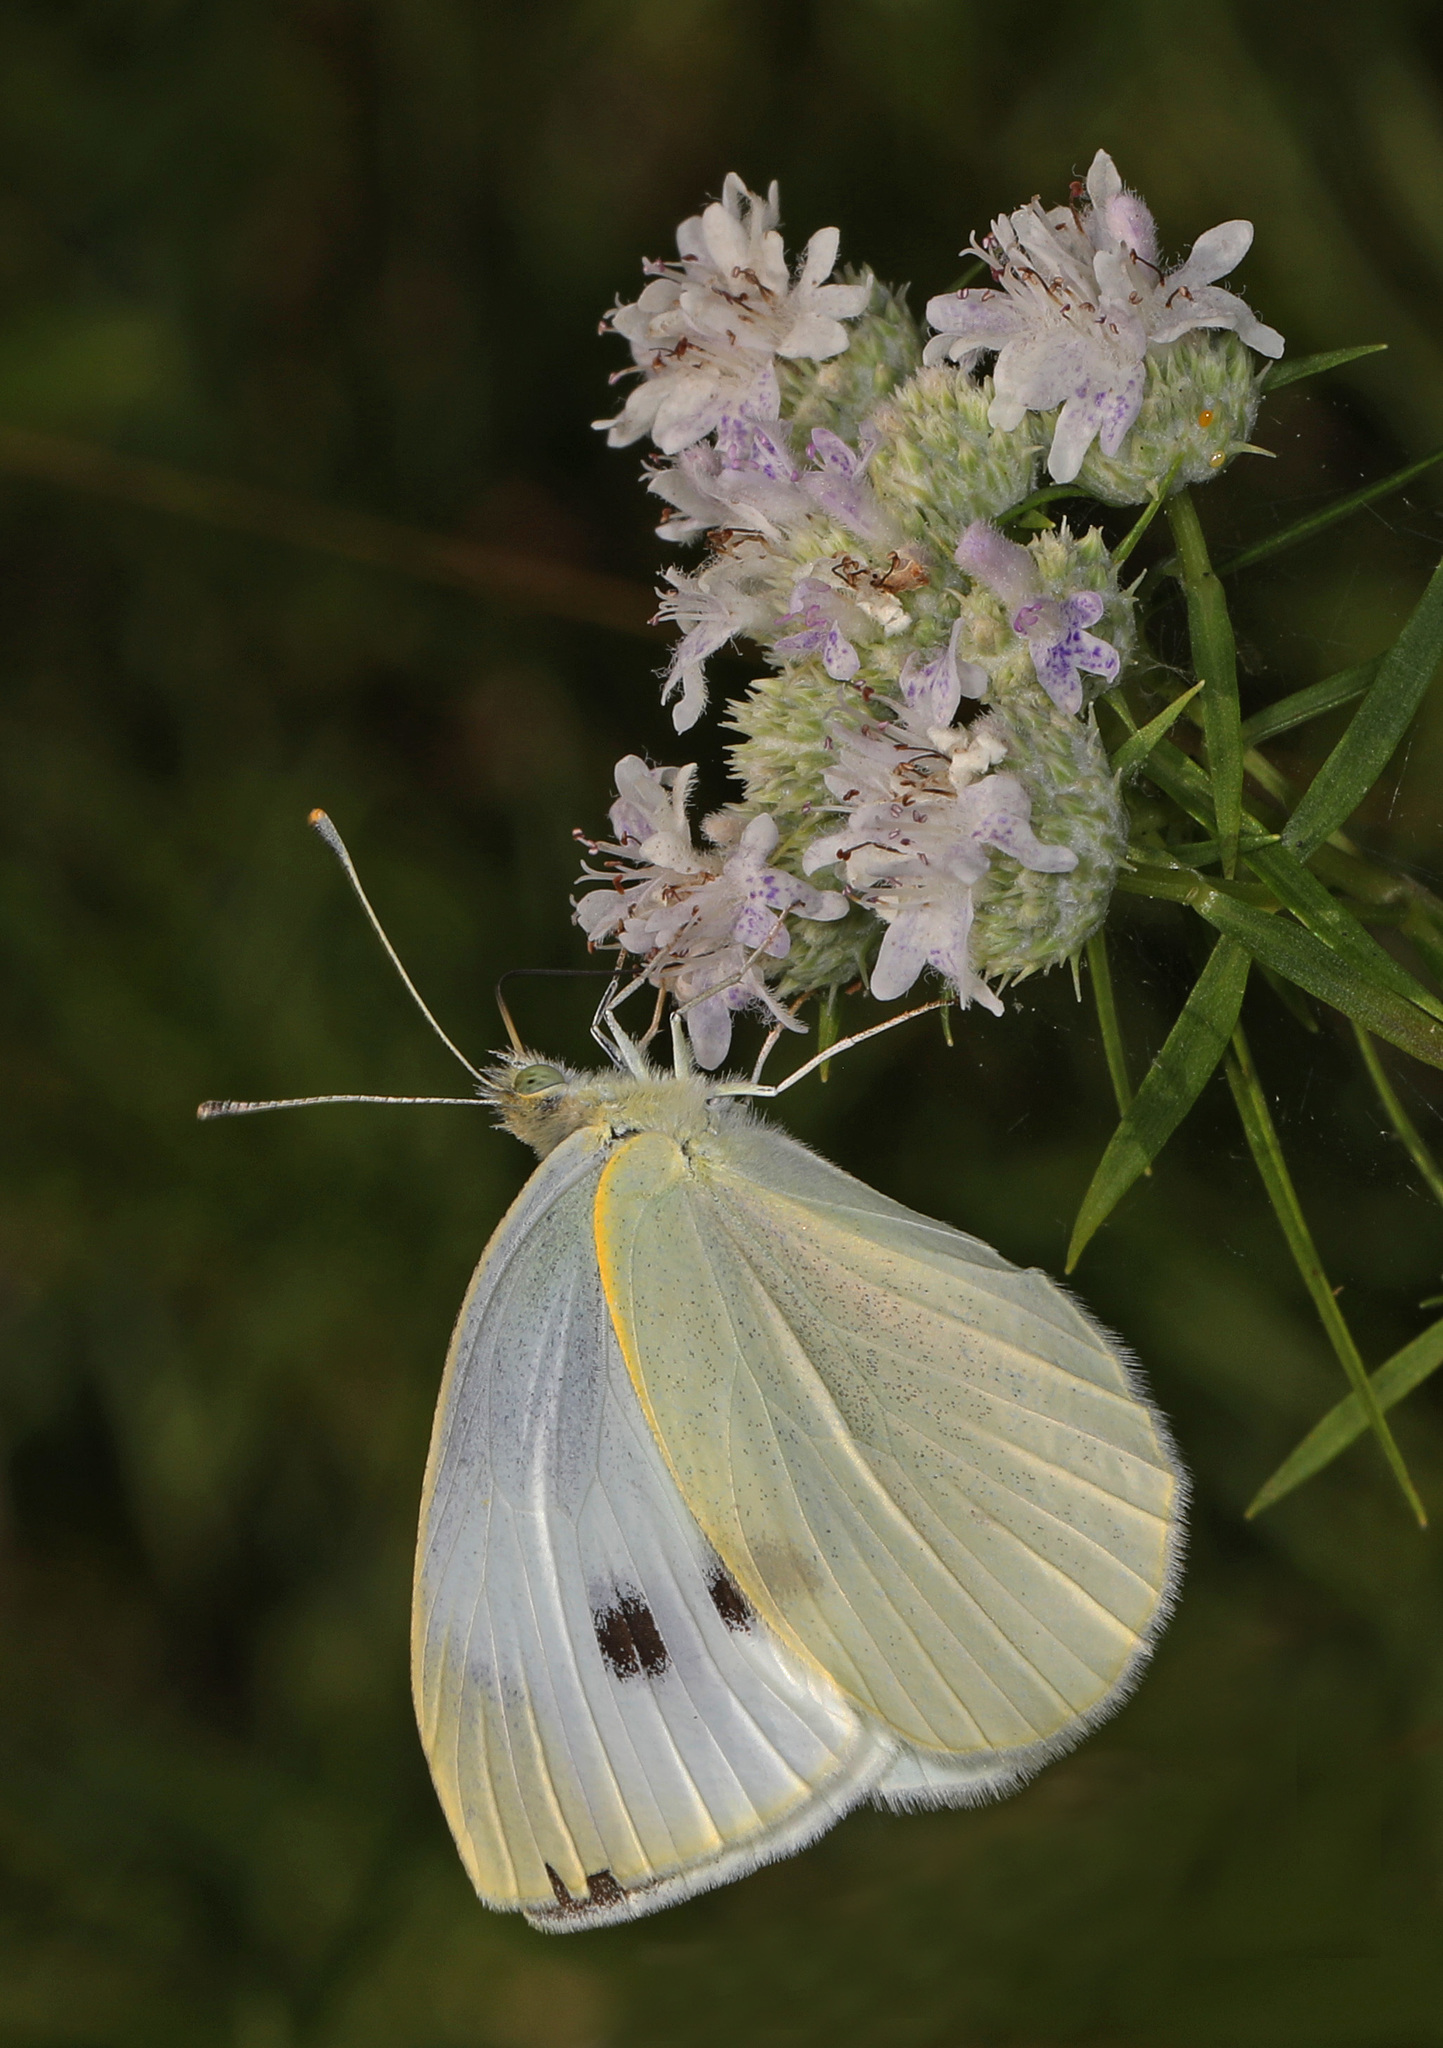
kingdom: Animalia
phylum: Arthropoda
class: Insecta
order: Lepidoptera
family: Pieridae
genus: Pieris
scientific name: Pieris rapae
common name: Small white
